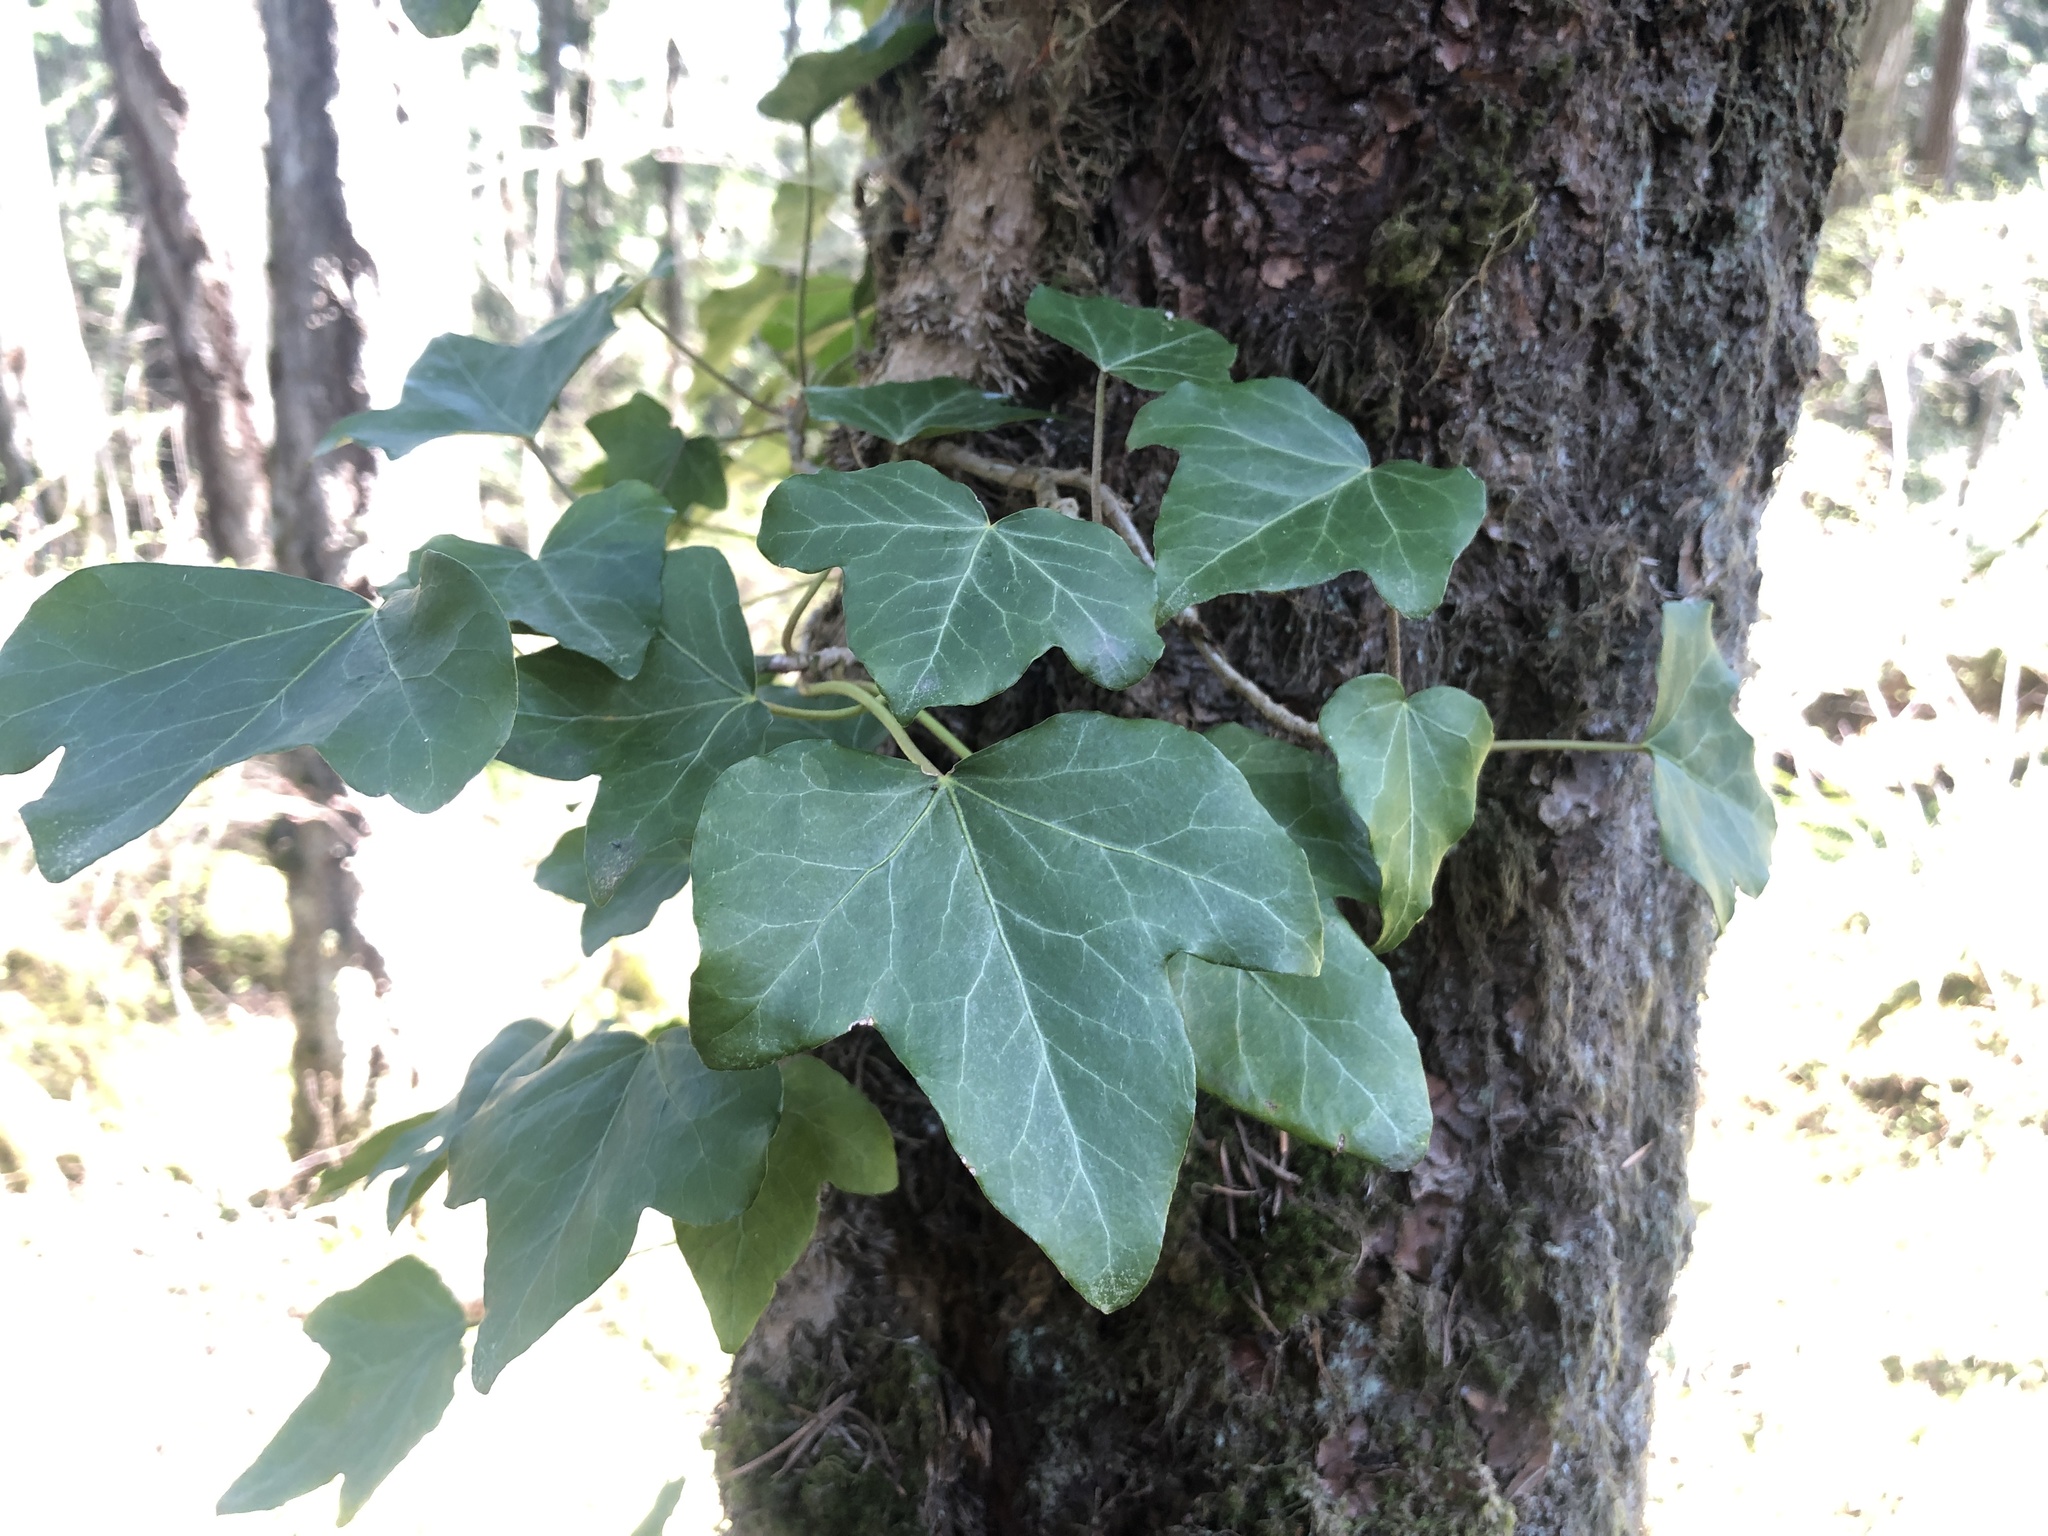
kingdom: Plantae
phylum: Tracheophyta
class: Magnoliopsida
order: Apiales
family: Araliaceae
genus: Hedera
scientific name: Hedera helix
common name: Ivy
